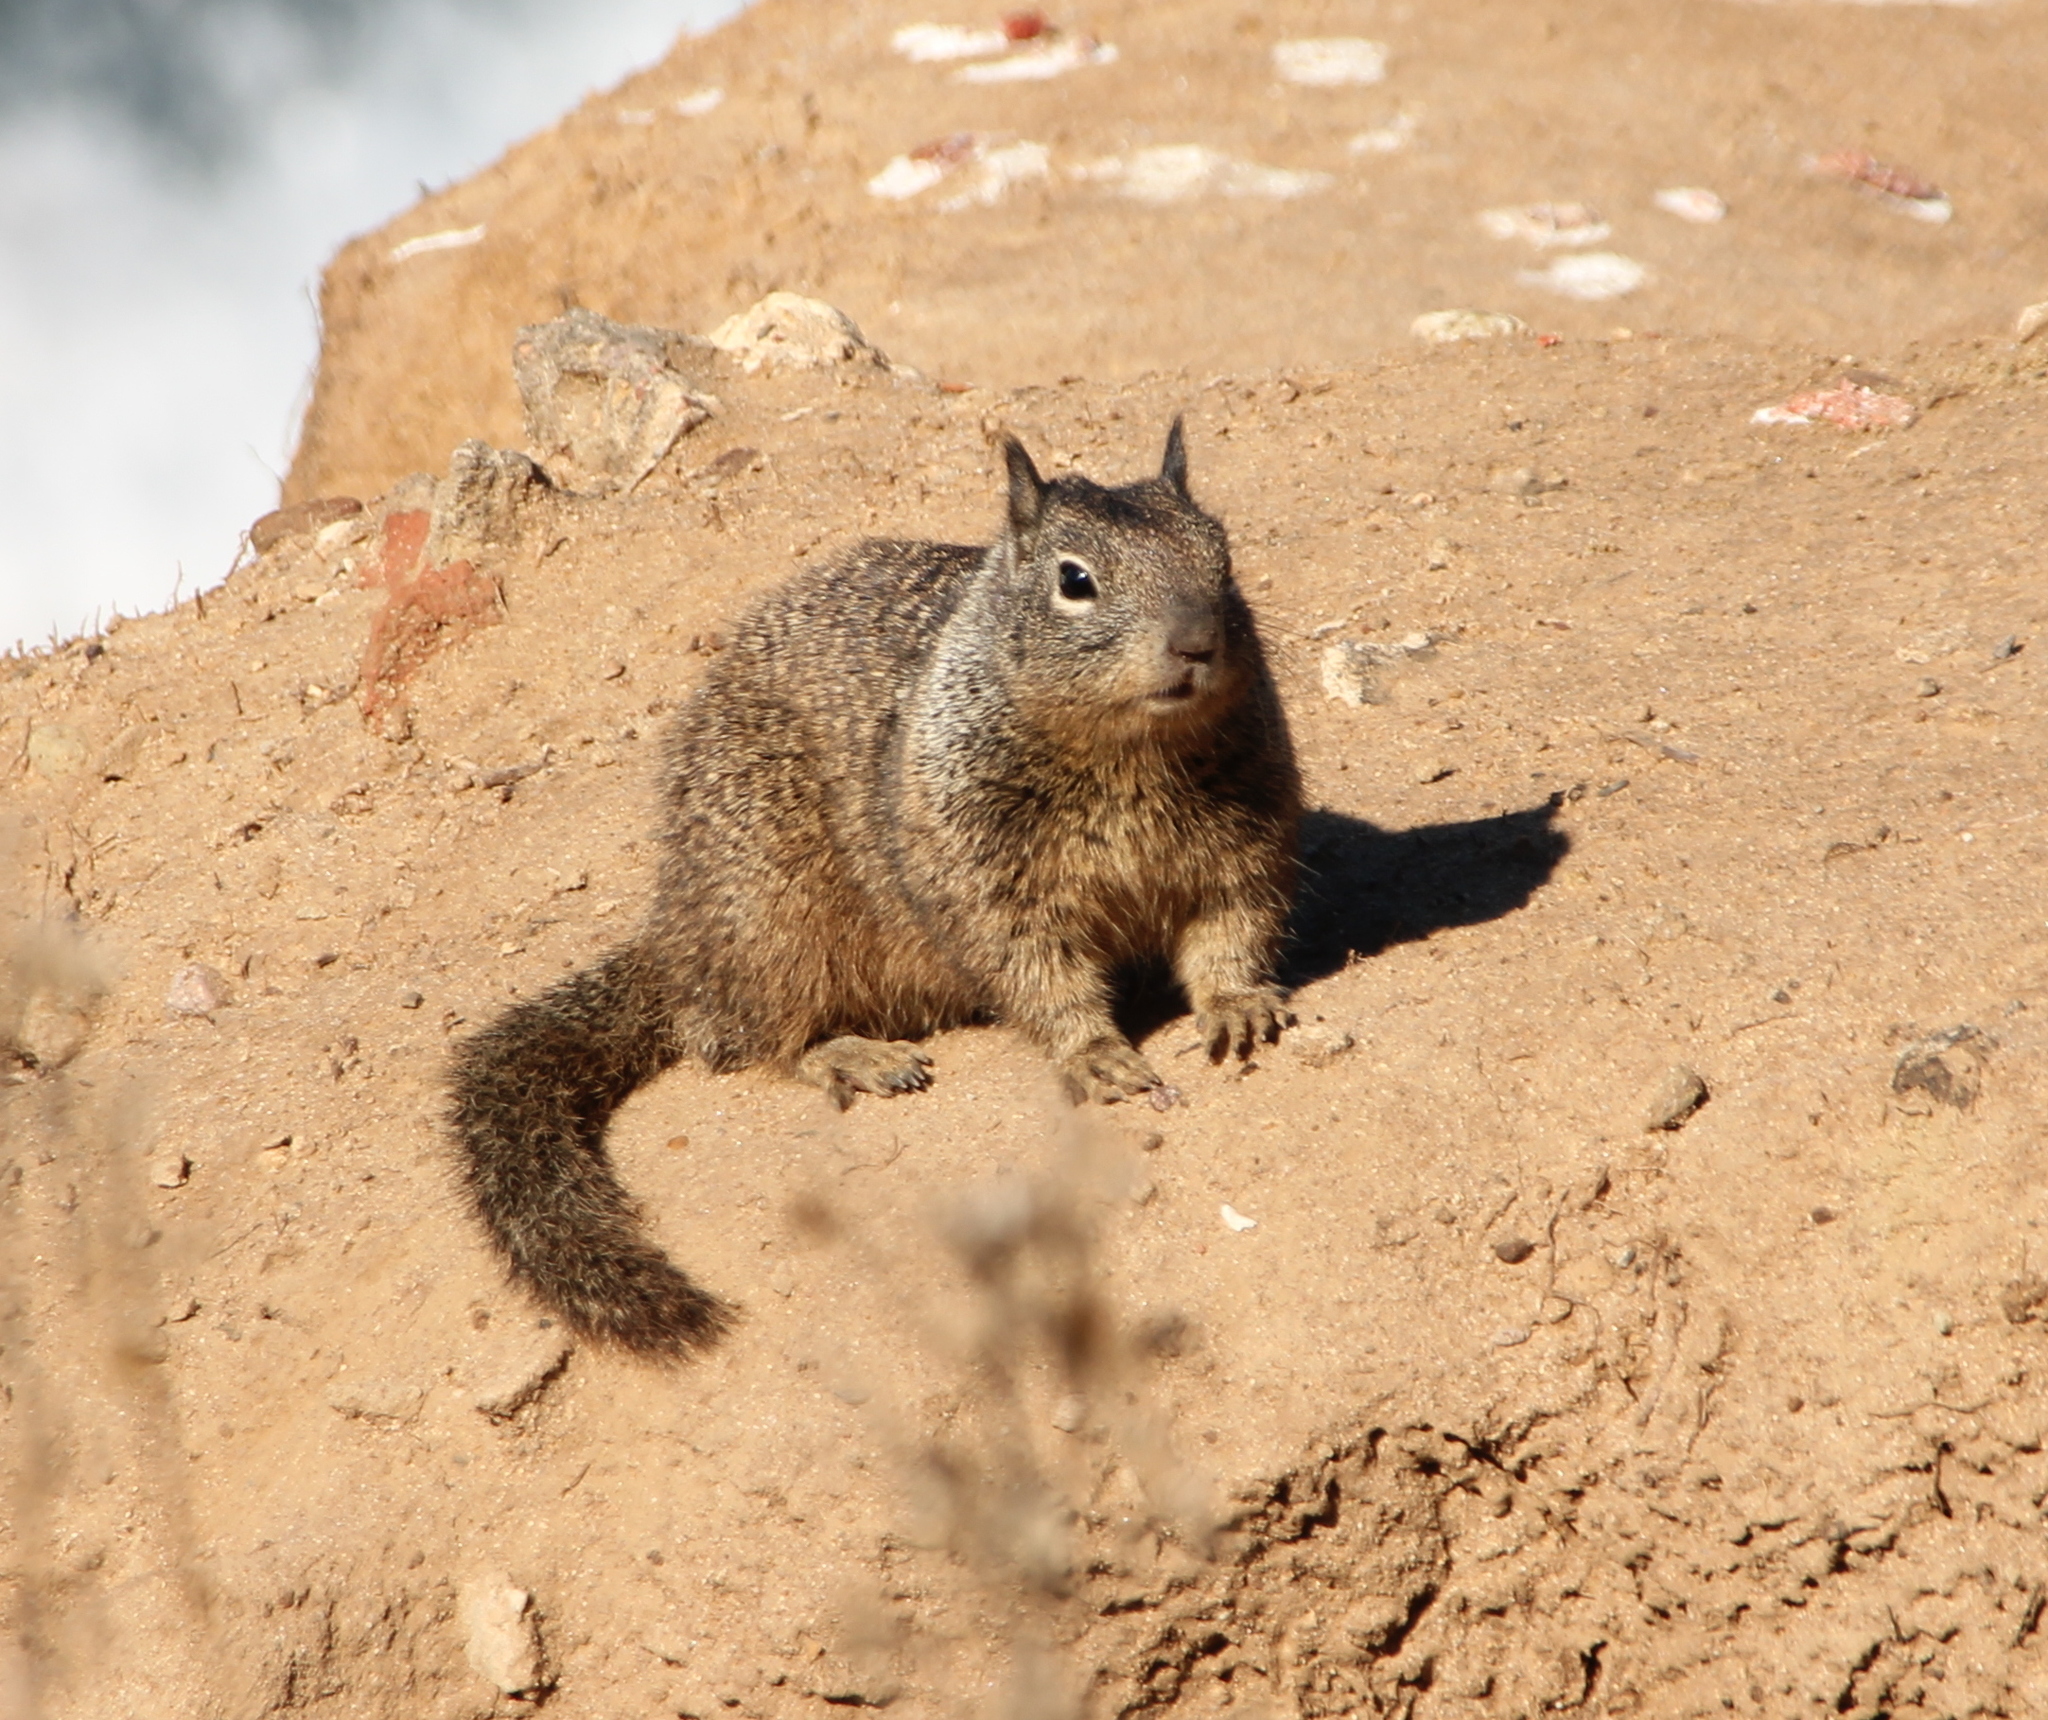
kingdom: Animalia
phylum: Chordata
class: Mammalia
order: Rodentia
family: Sciuridae
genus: Otospermophilus
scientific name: Otospermophilus beecheyi
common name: California ground squirrel
